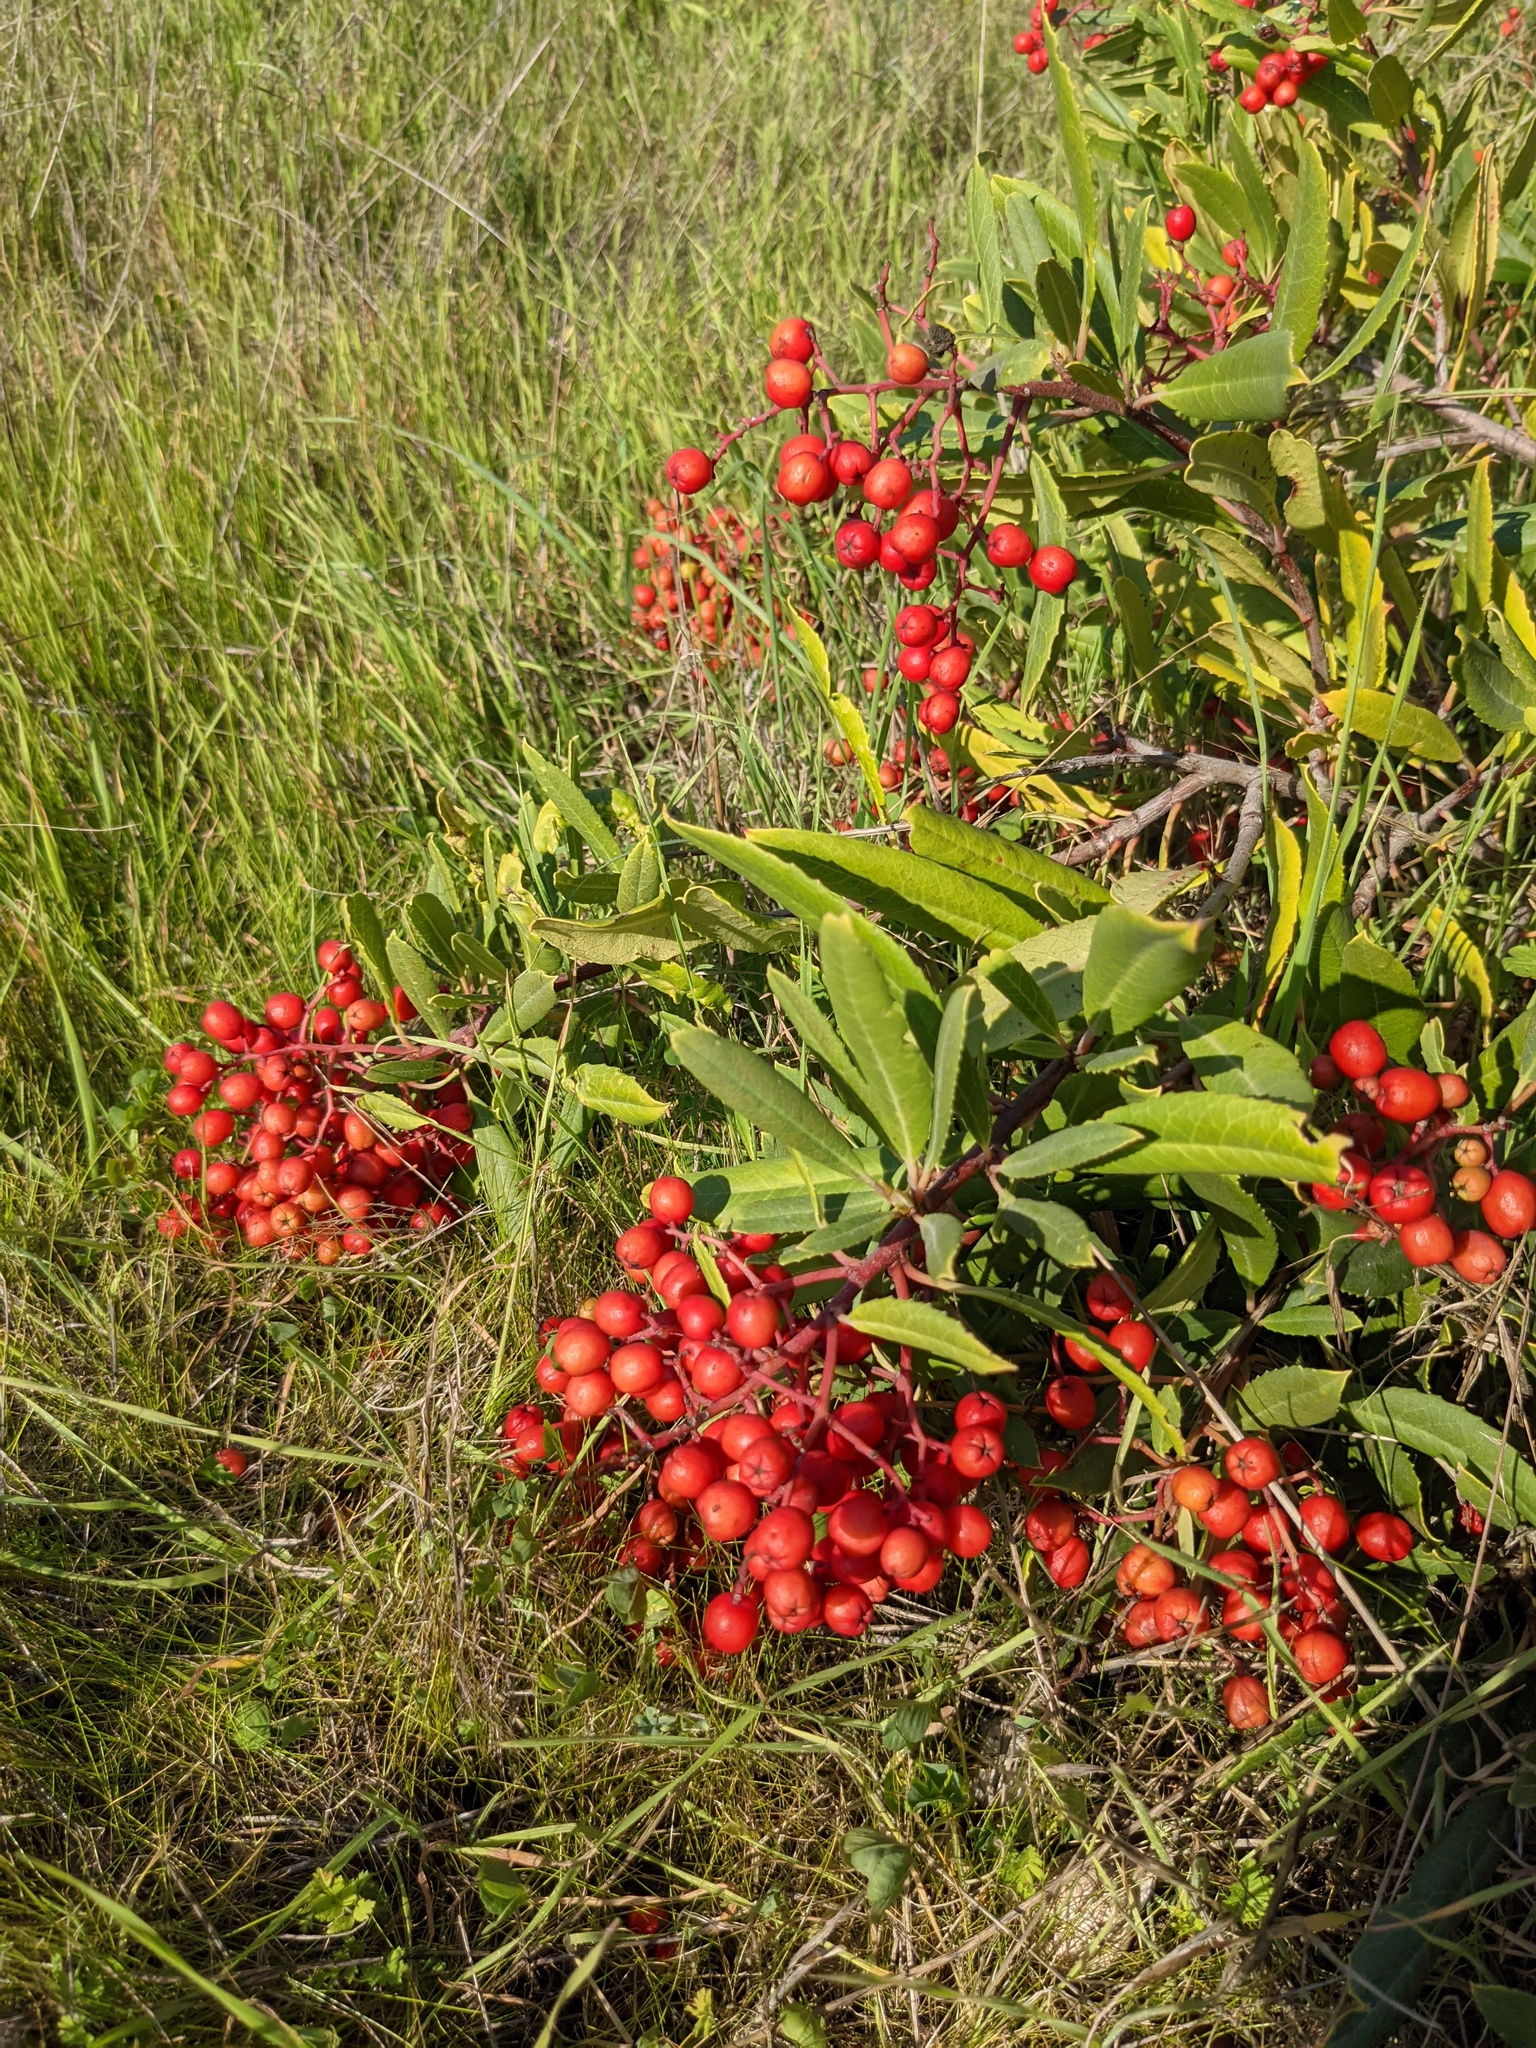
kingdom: Plantae
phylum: Tracheophyta
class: Magnoliopsida
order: Rosales
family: Rosaceae
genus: Heteromeles
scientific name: Heteromeles arbutifolia
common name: California-holly
